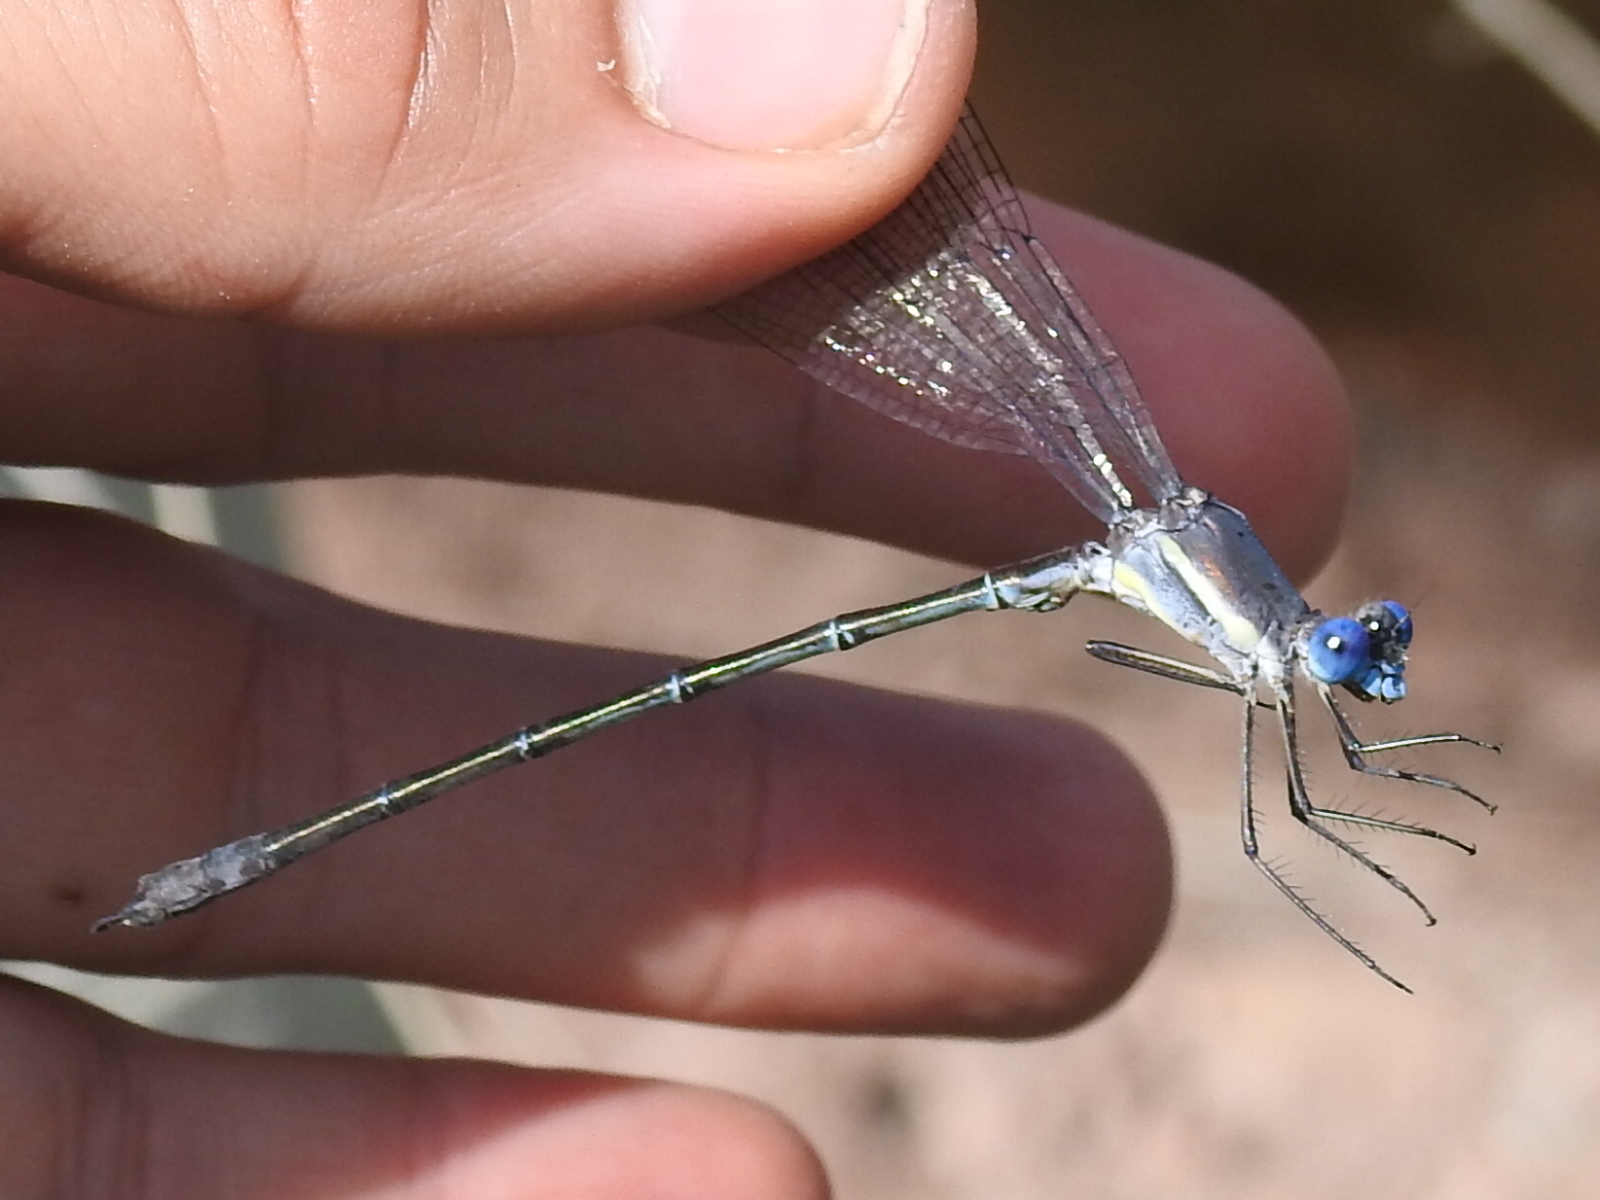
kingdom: Animalia
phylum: Arthropoda
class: Insecta
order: Odonata
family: Lestidae
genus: Archilestes
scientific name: Archilestes grandis
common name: Great spreadwing
